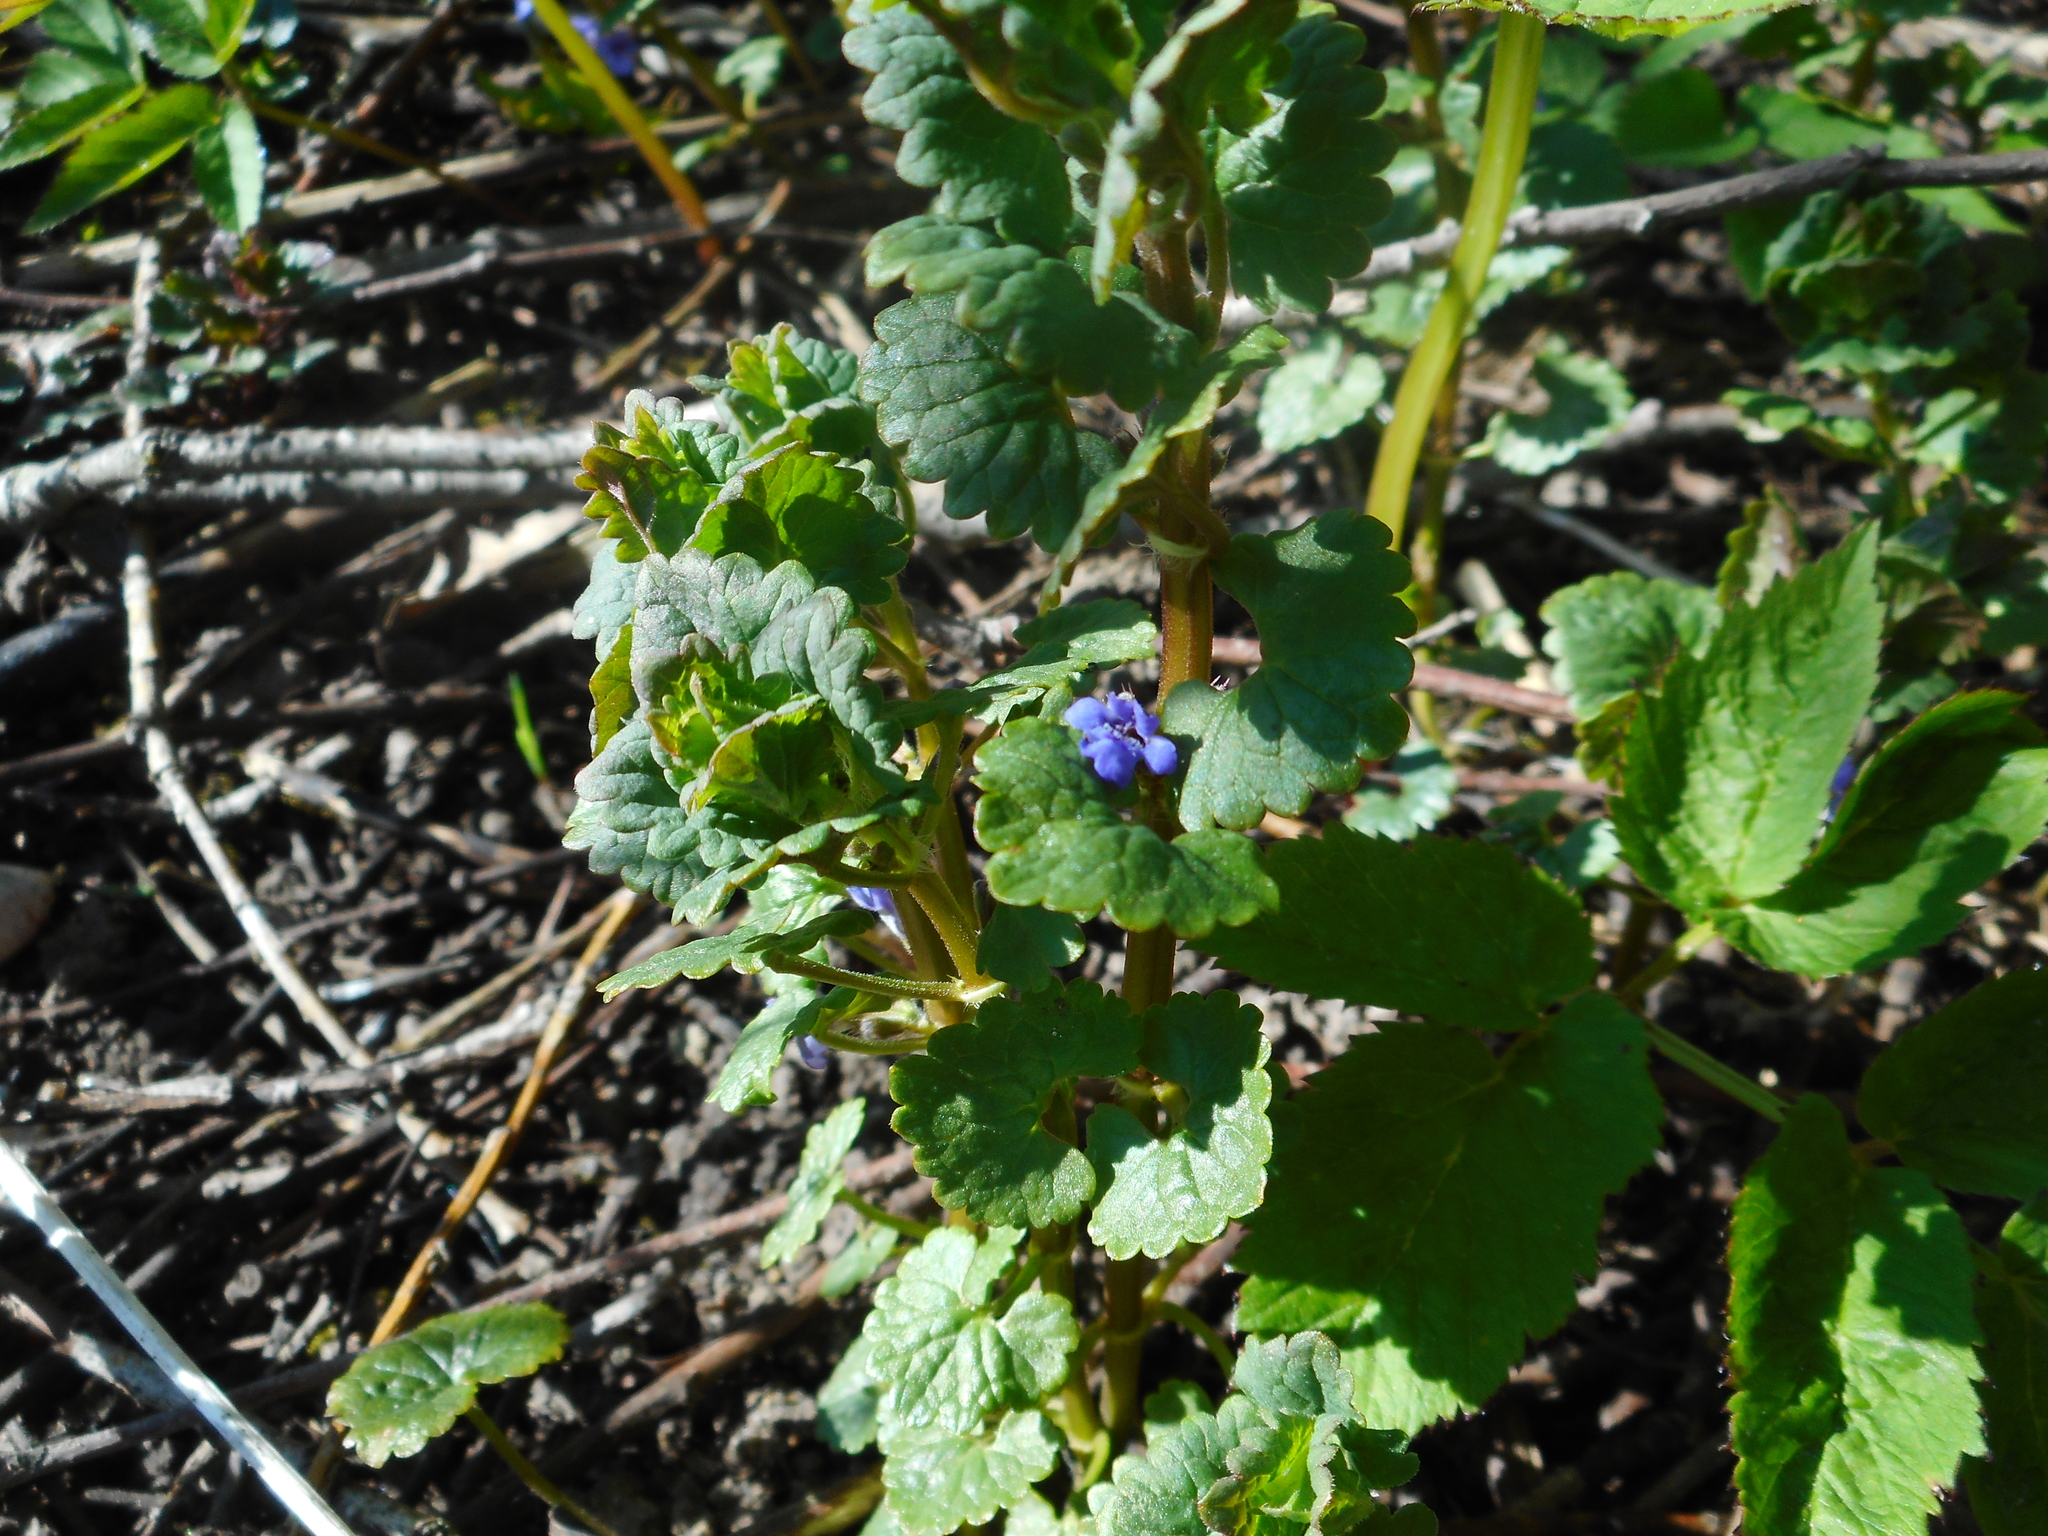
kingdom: Plantae
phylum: Tracheophyta
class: Magnoliopsida
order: Lamiales
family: Lamiaceae
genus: Glechoma
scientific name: Glechoma hederacea
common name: Ground ivy
